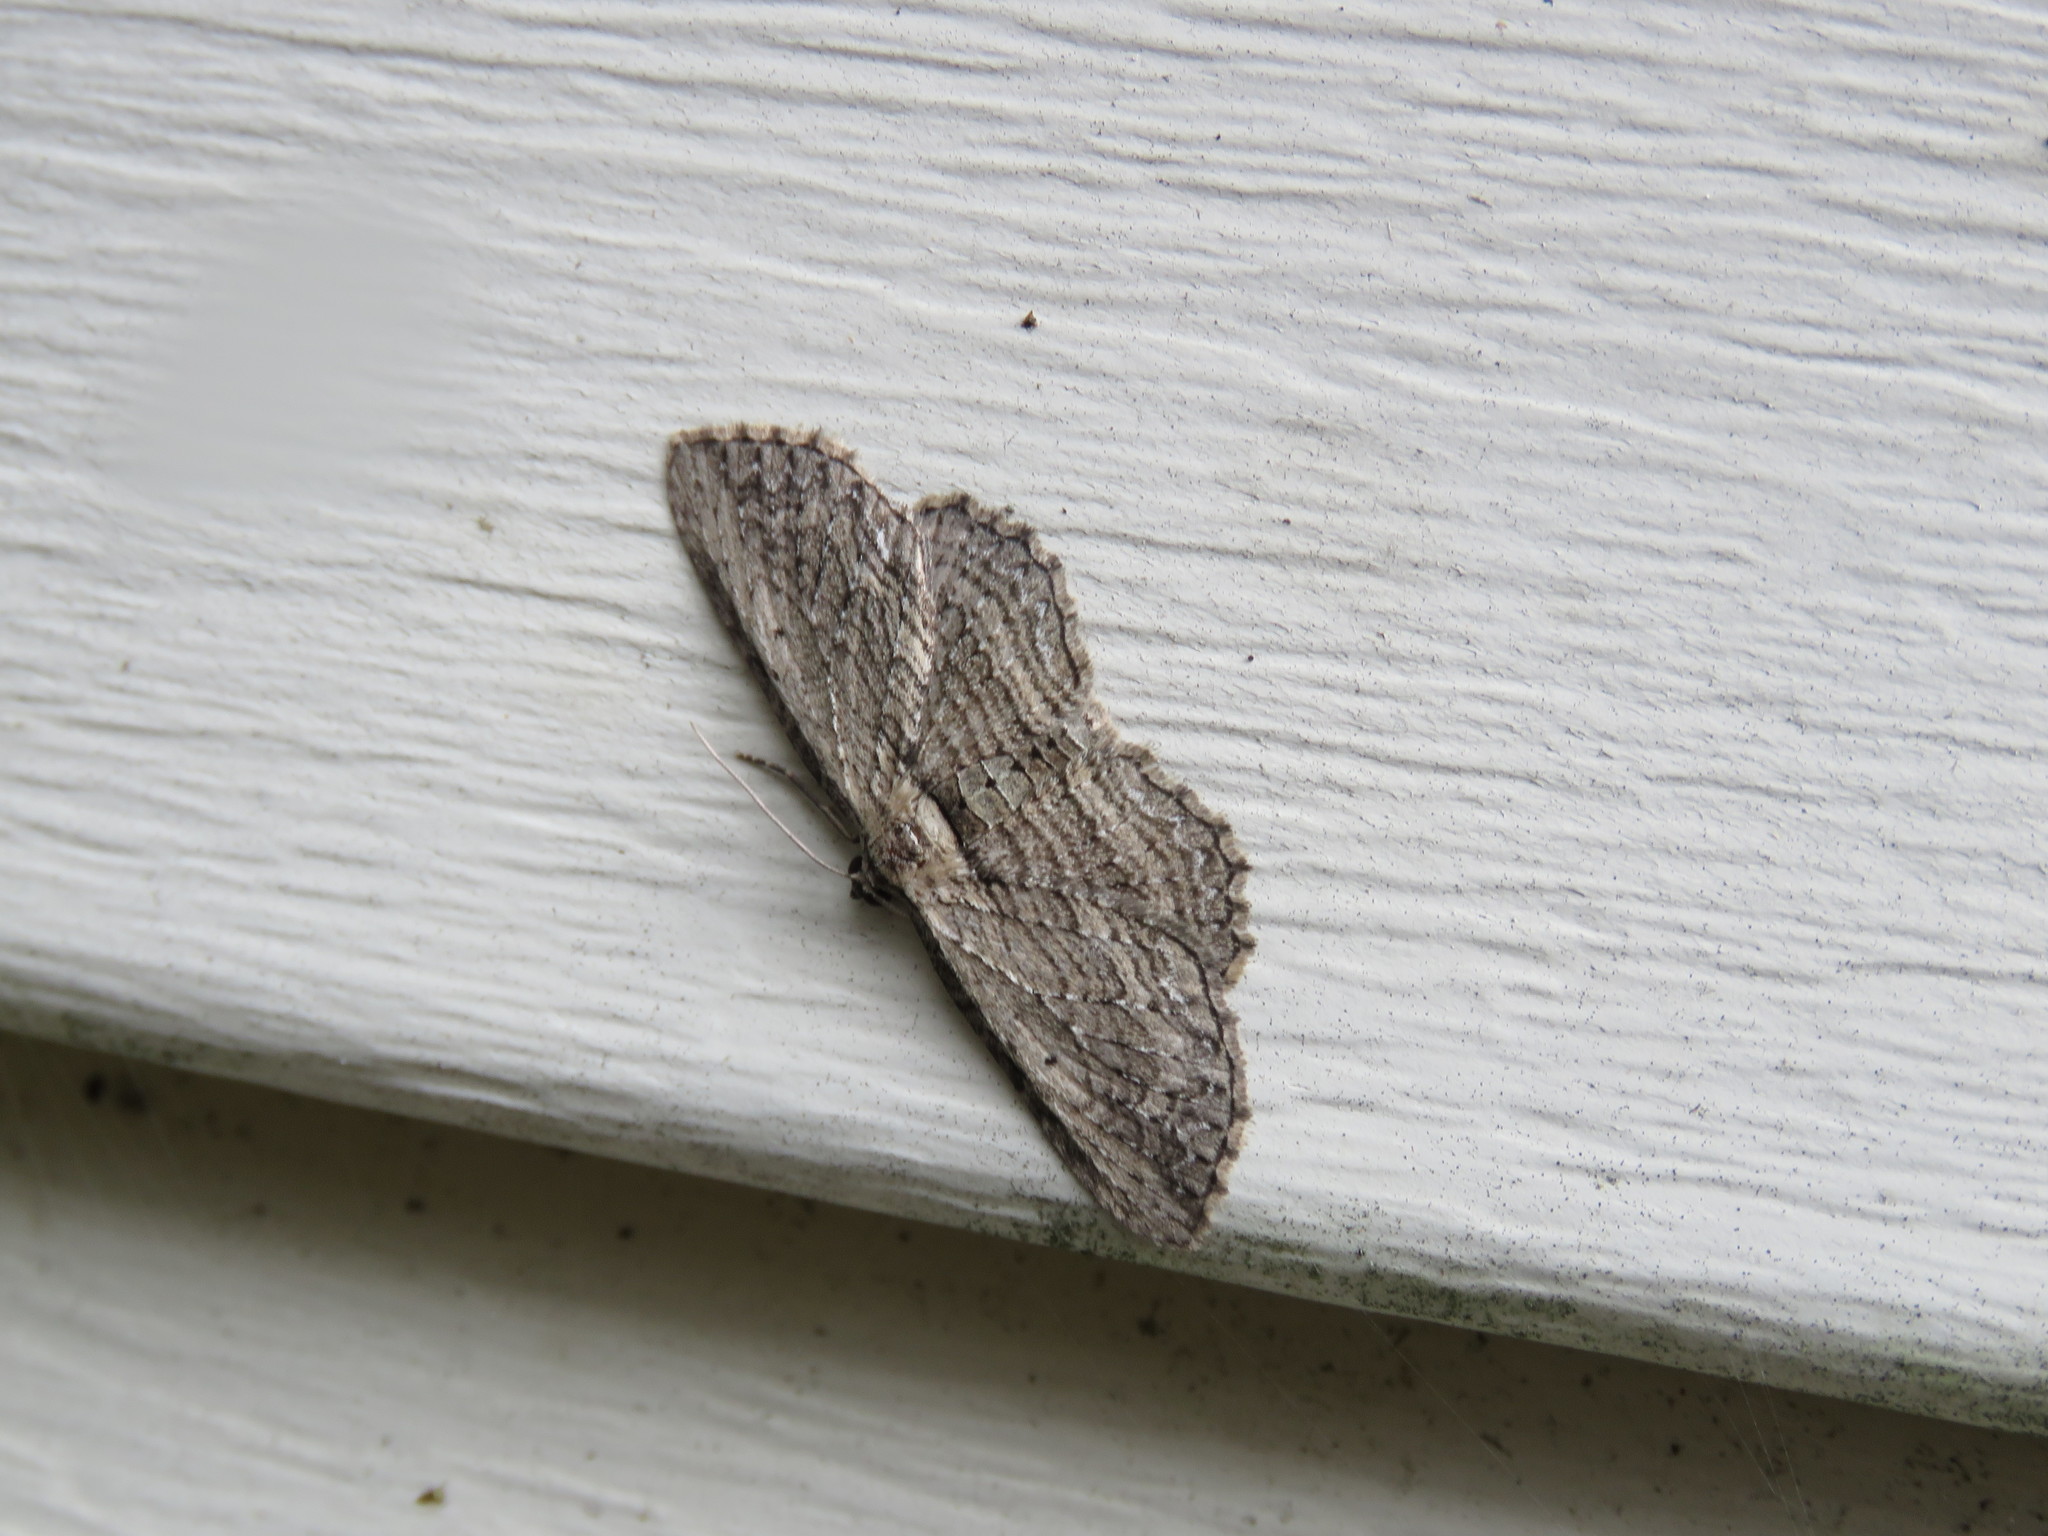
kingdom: Animalia
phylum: Arthropoda
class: Insecta
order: Lepidoptera
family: Geometridae
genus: Horisme
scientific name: Horisme intestinata
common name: Brown bark carpet
